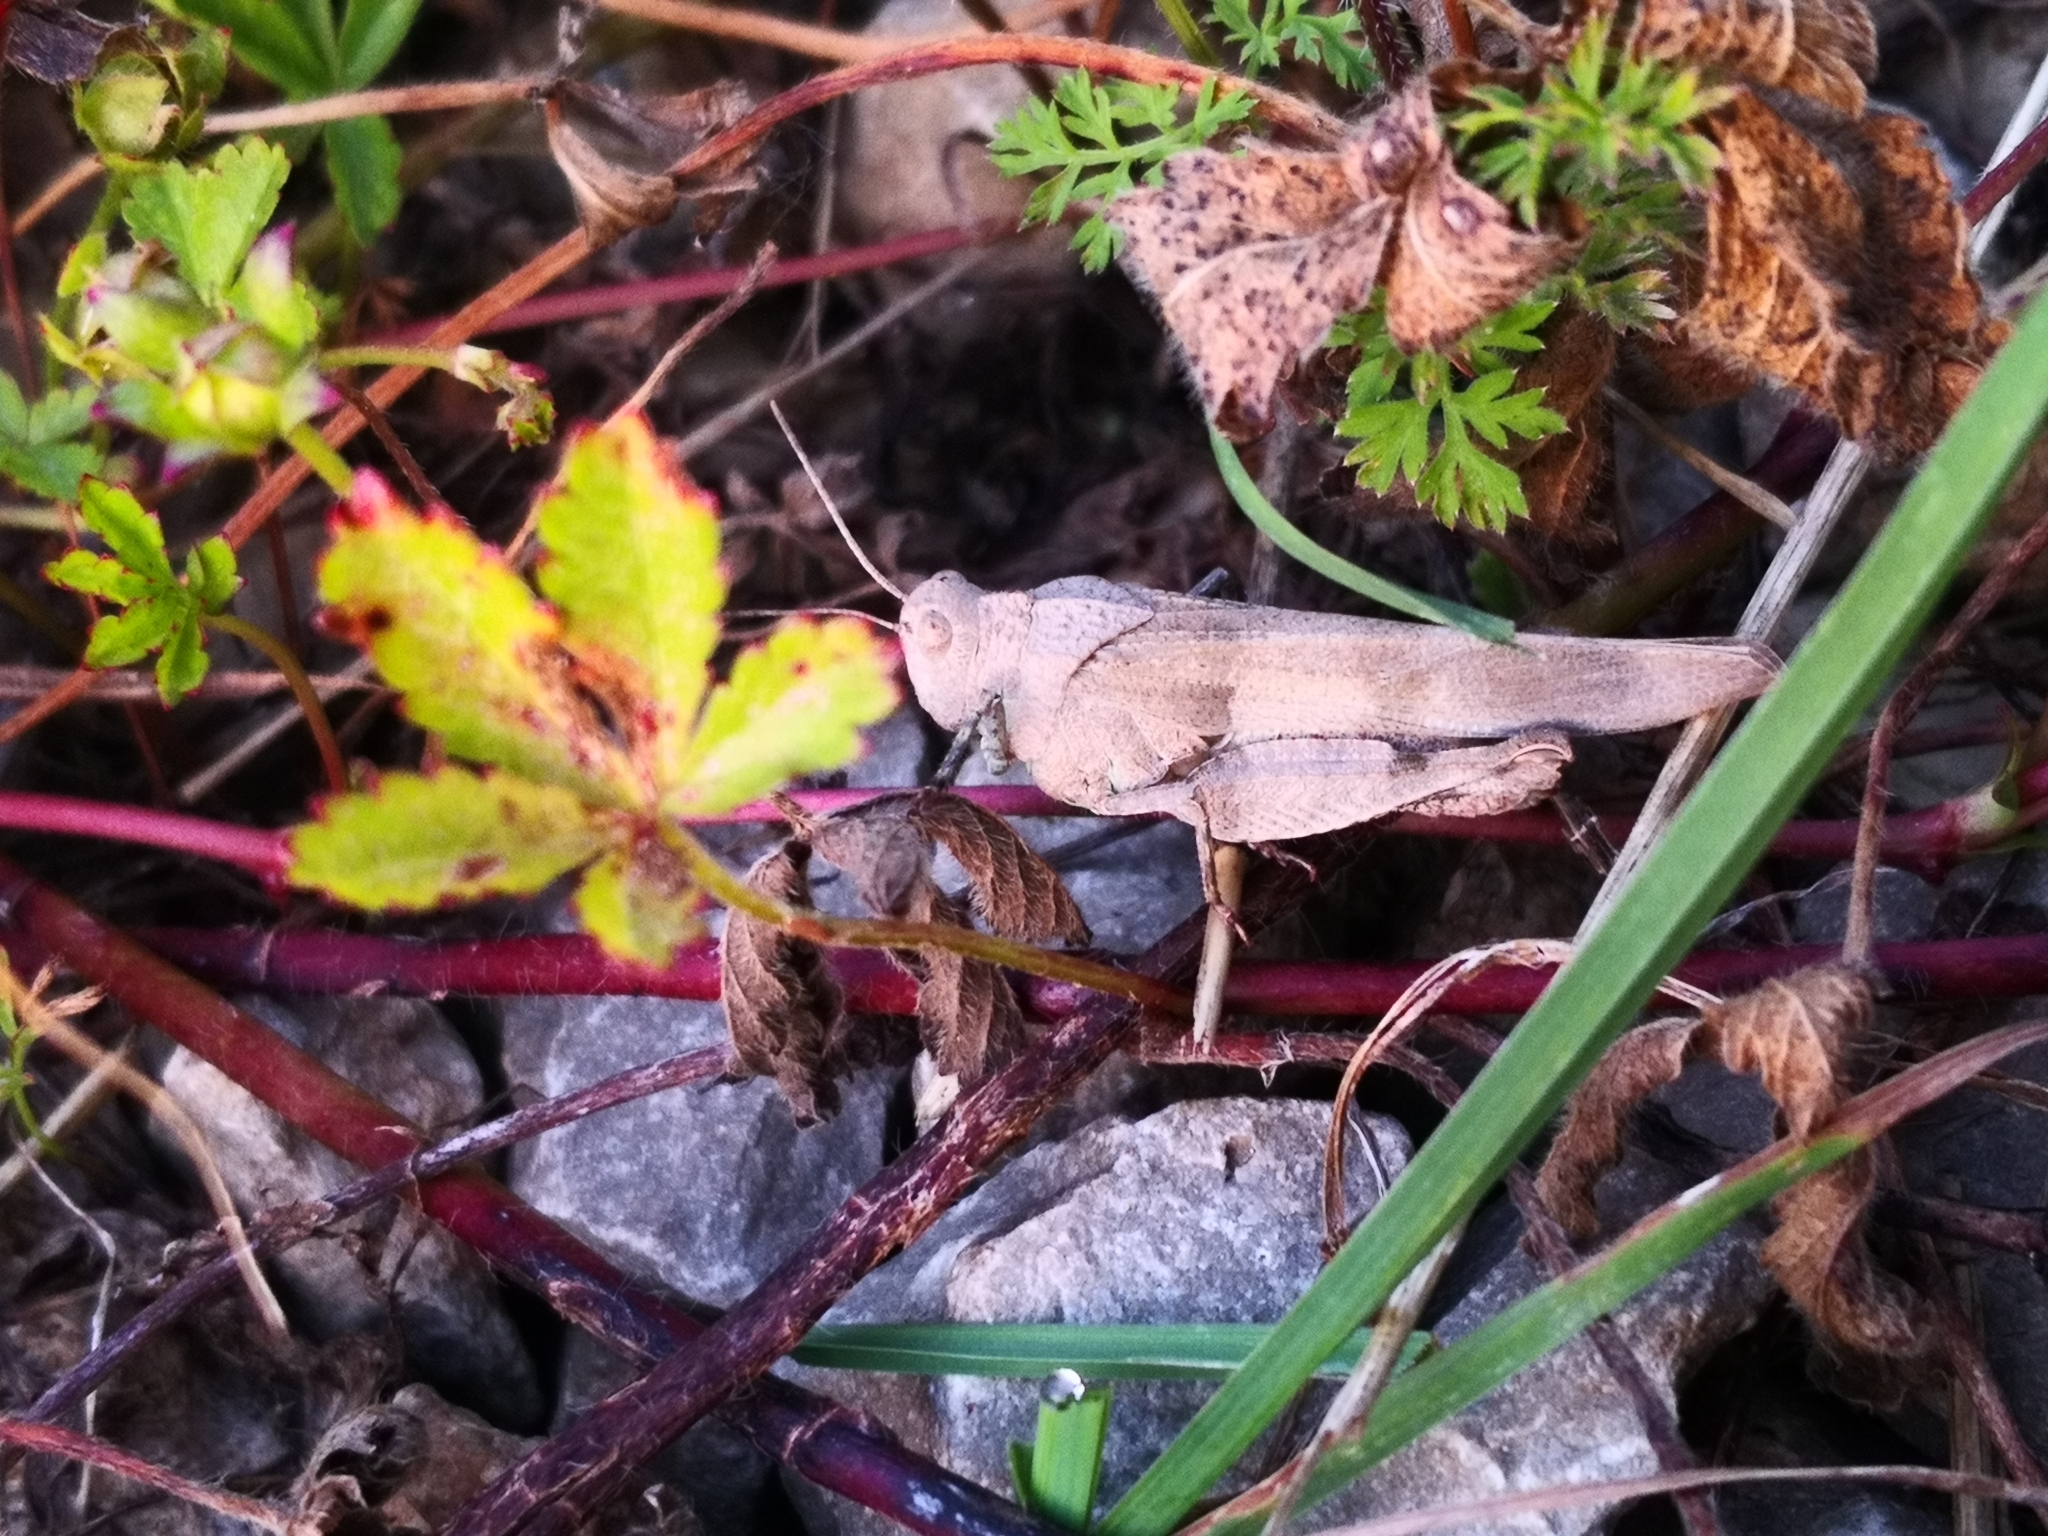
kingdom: Animalia
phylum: Arthropoda
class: Insecta
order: Orthoptera
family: Acrididae
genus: Oedipoda
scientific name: Oedipoda caerulescens
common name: Blue-winged grasshopper
